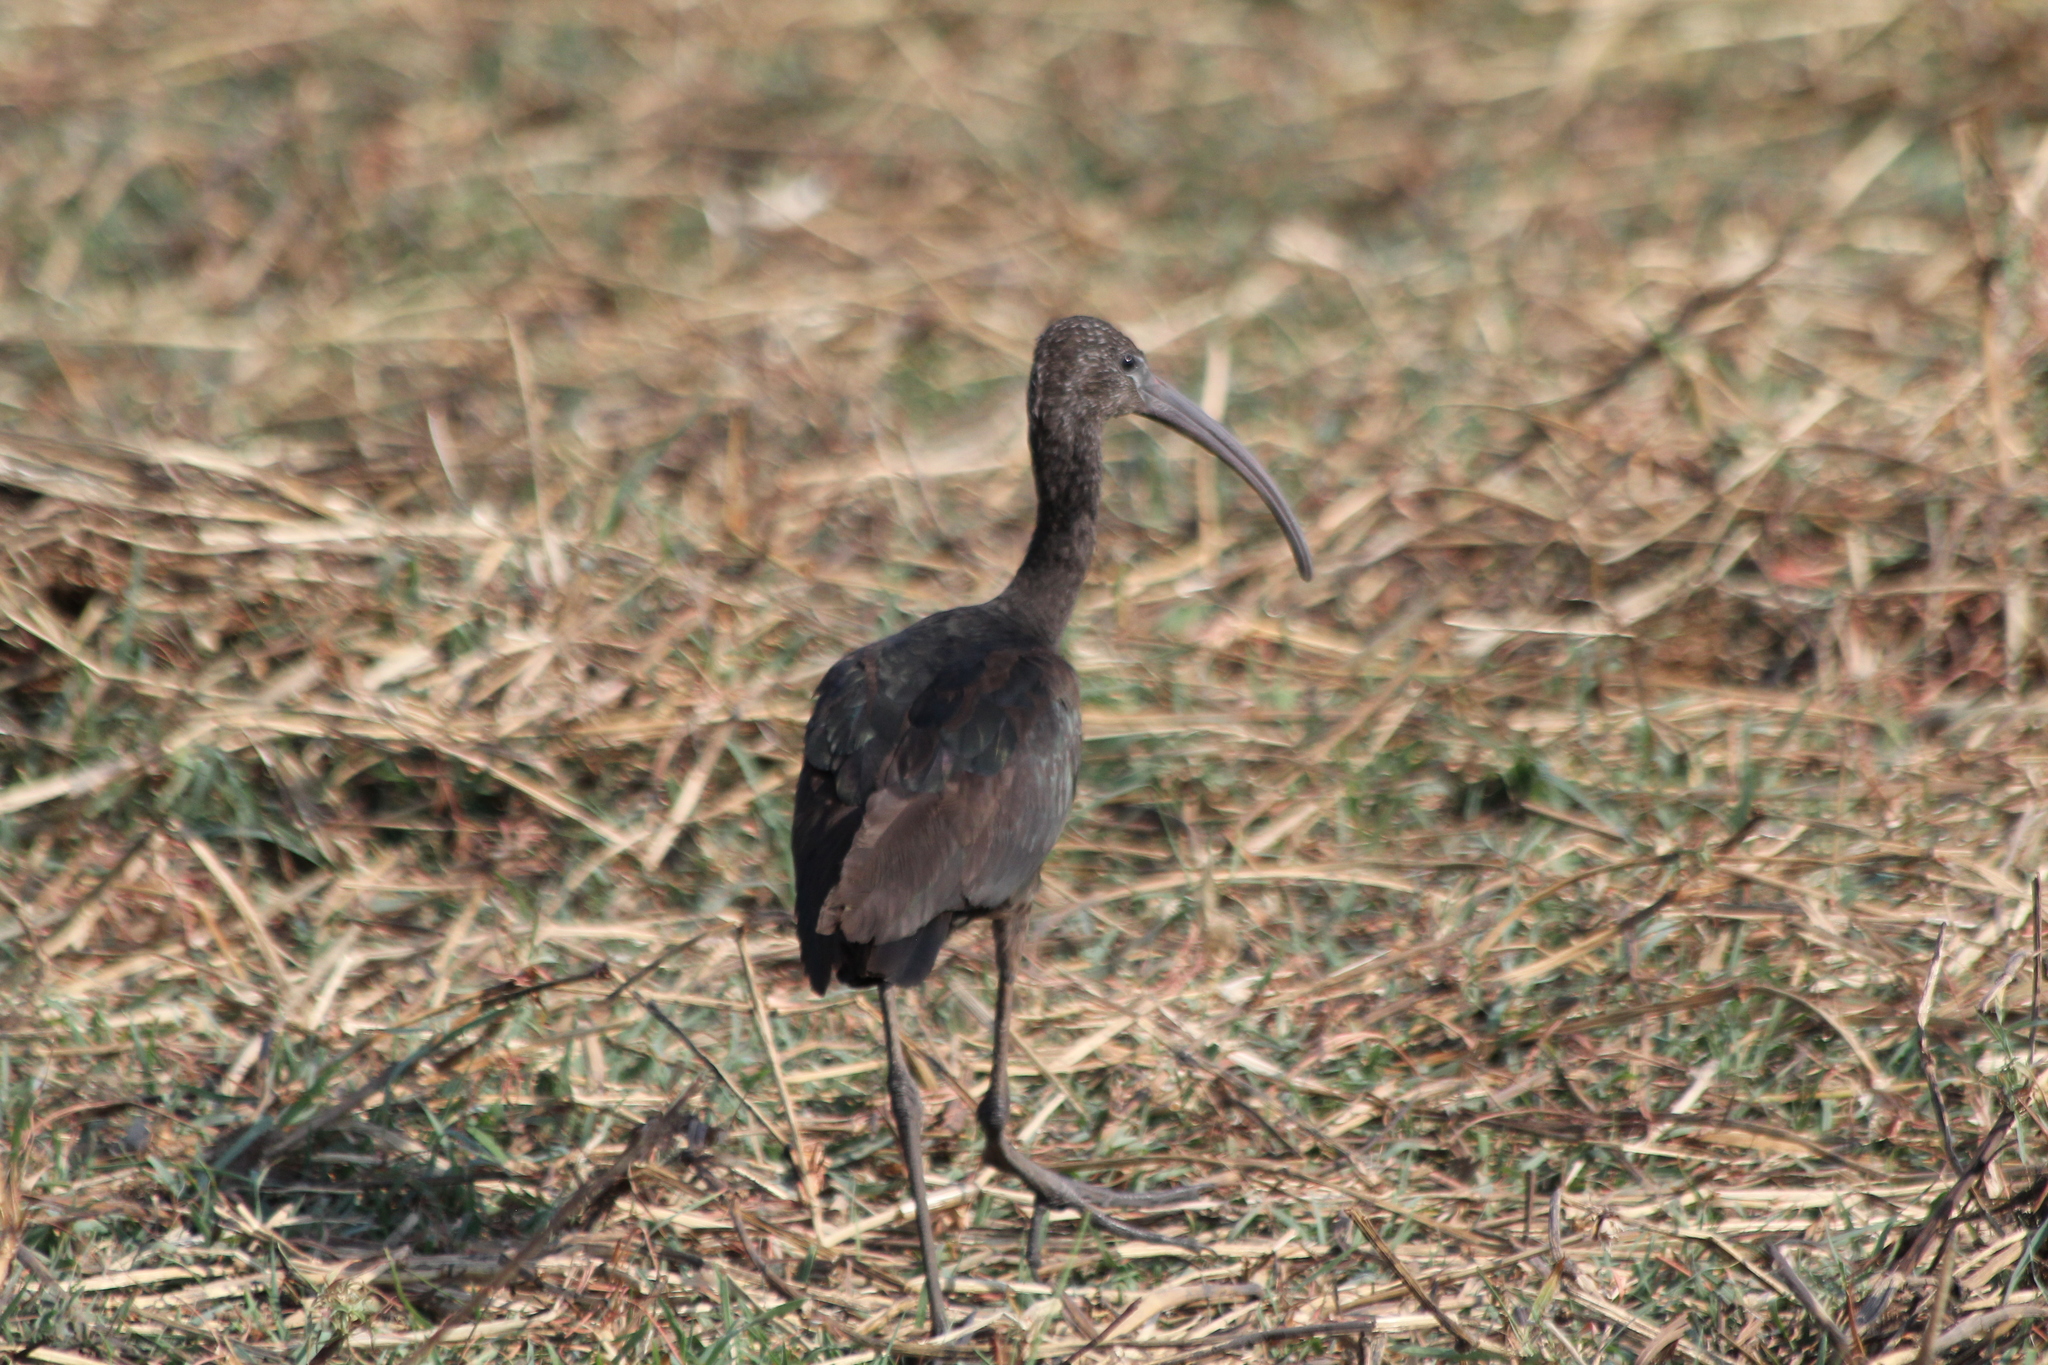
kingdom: Animalia
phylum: Chordata
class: Aves
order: Pelecaniformes
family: Threskiornithidae
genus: Plegadis
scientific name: Plegadis falcinellus
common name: Glossy ibis
